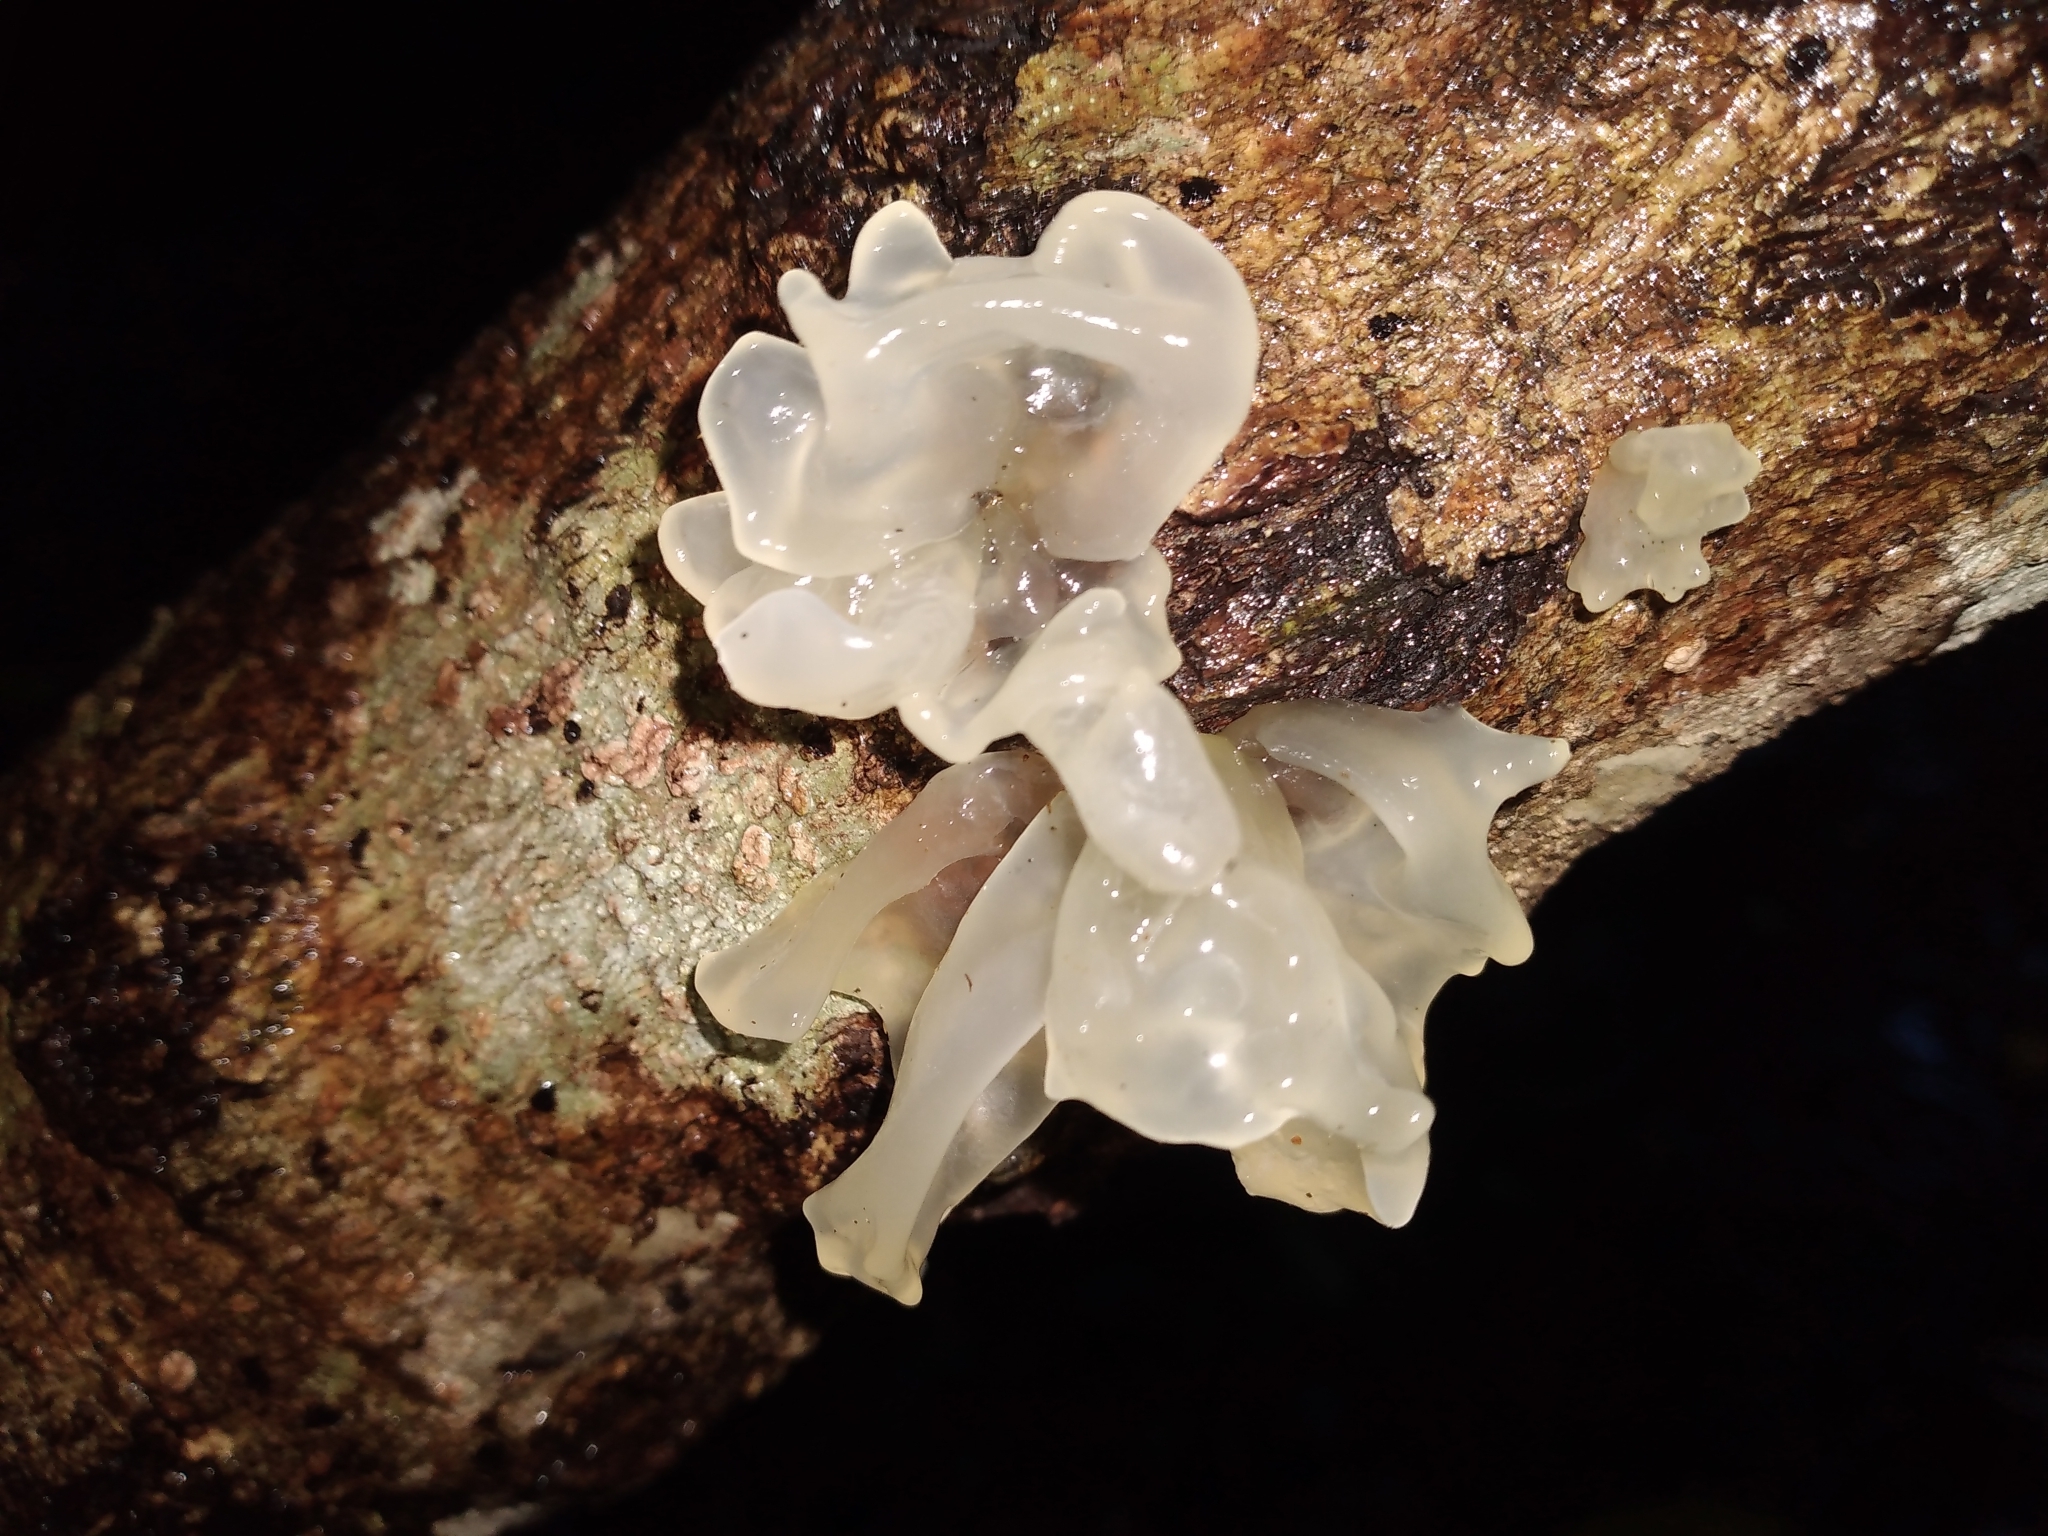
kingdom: Fungi
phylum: Basidiomycota
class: Tremellomycetes
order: Tremellales
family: Tremellaceae
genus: Tremella
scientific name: Tremella fuciformis
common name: Snow fungus
